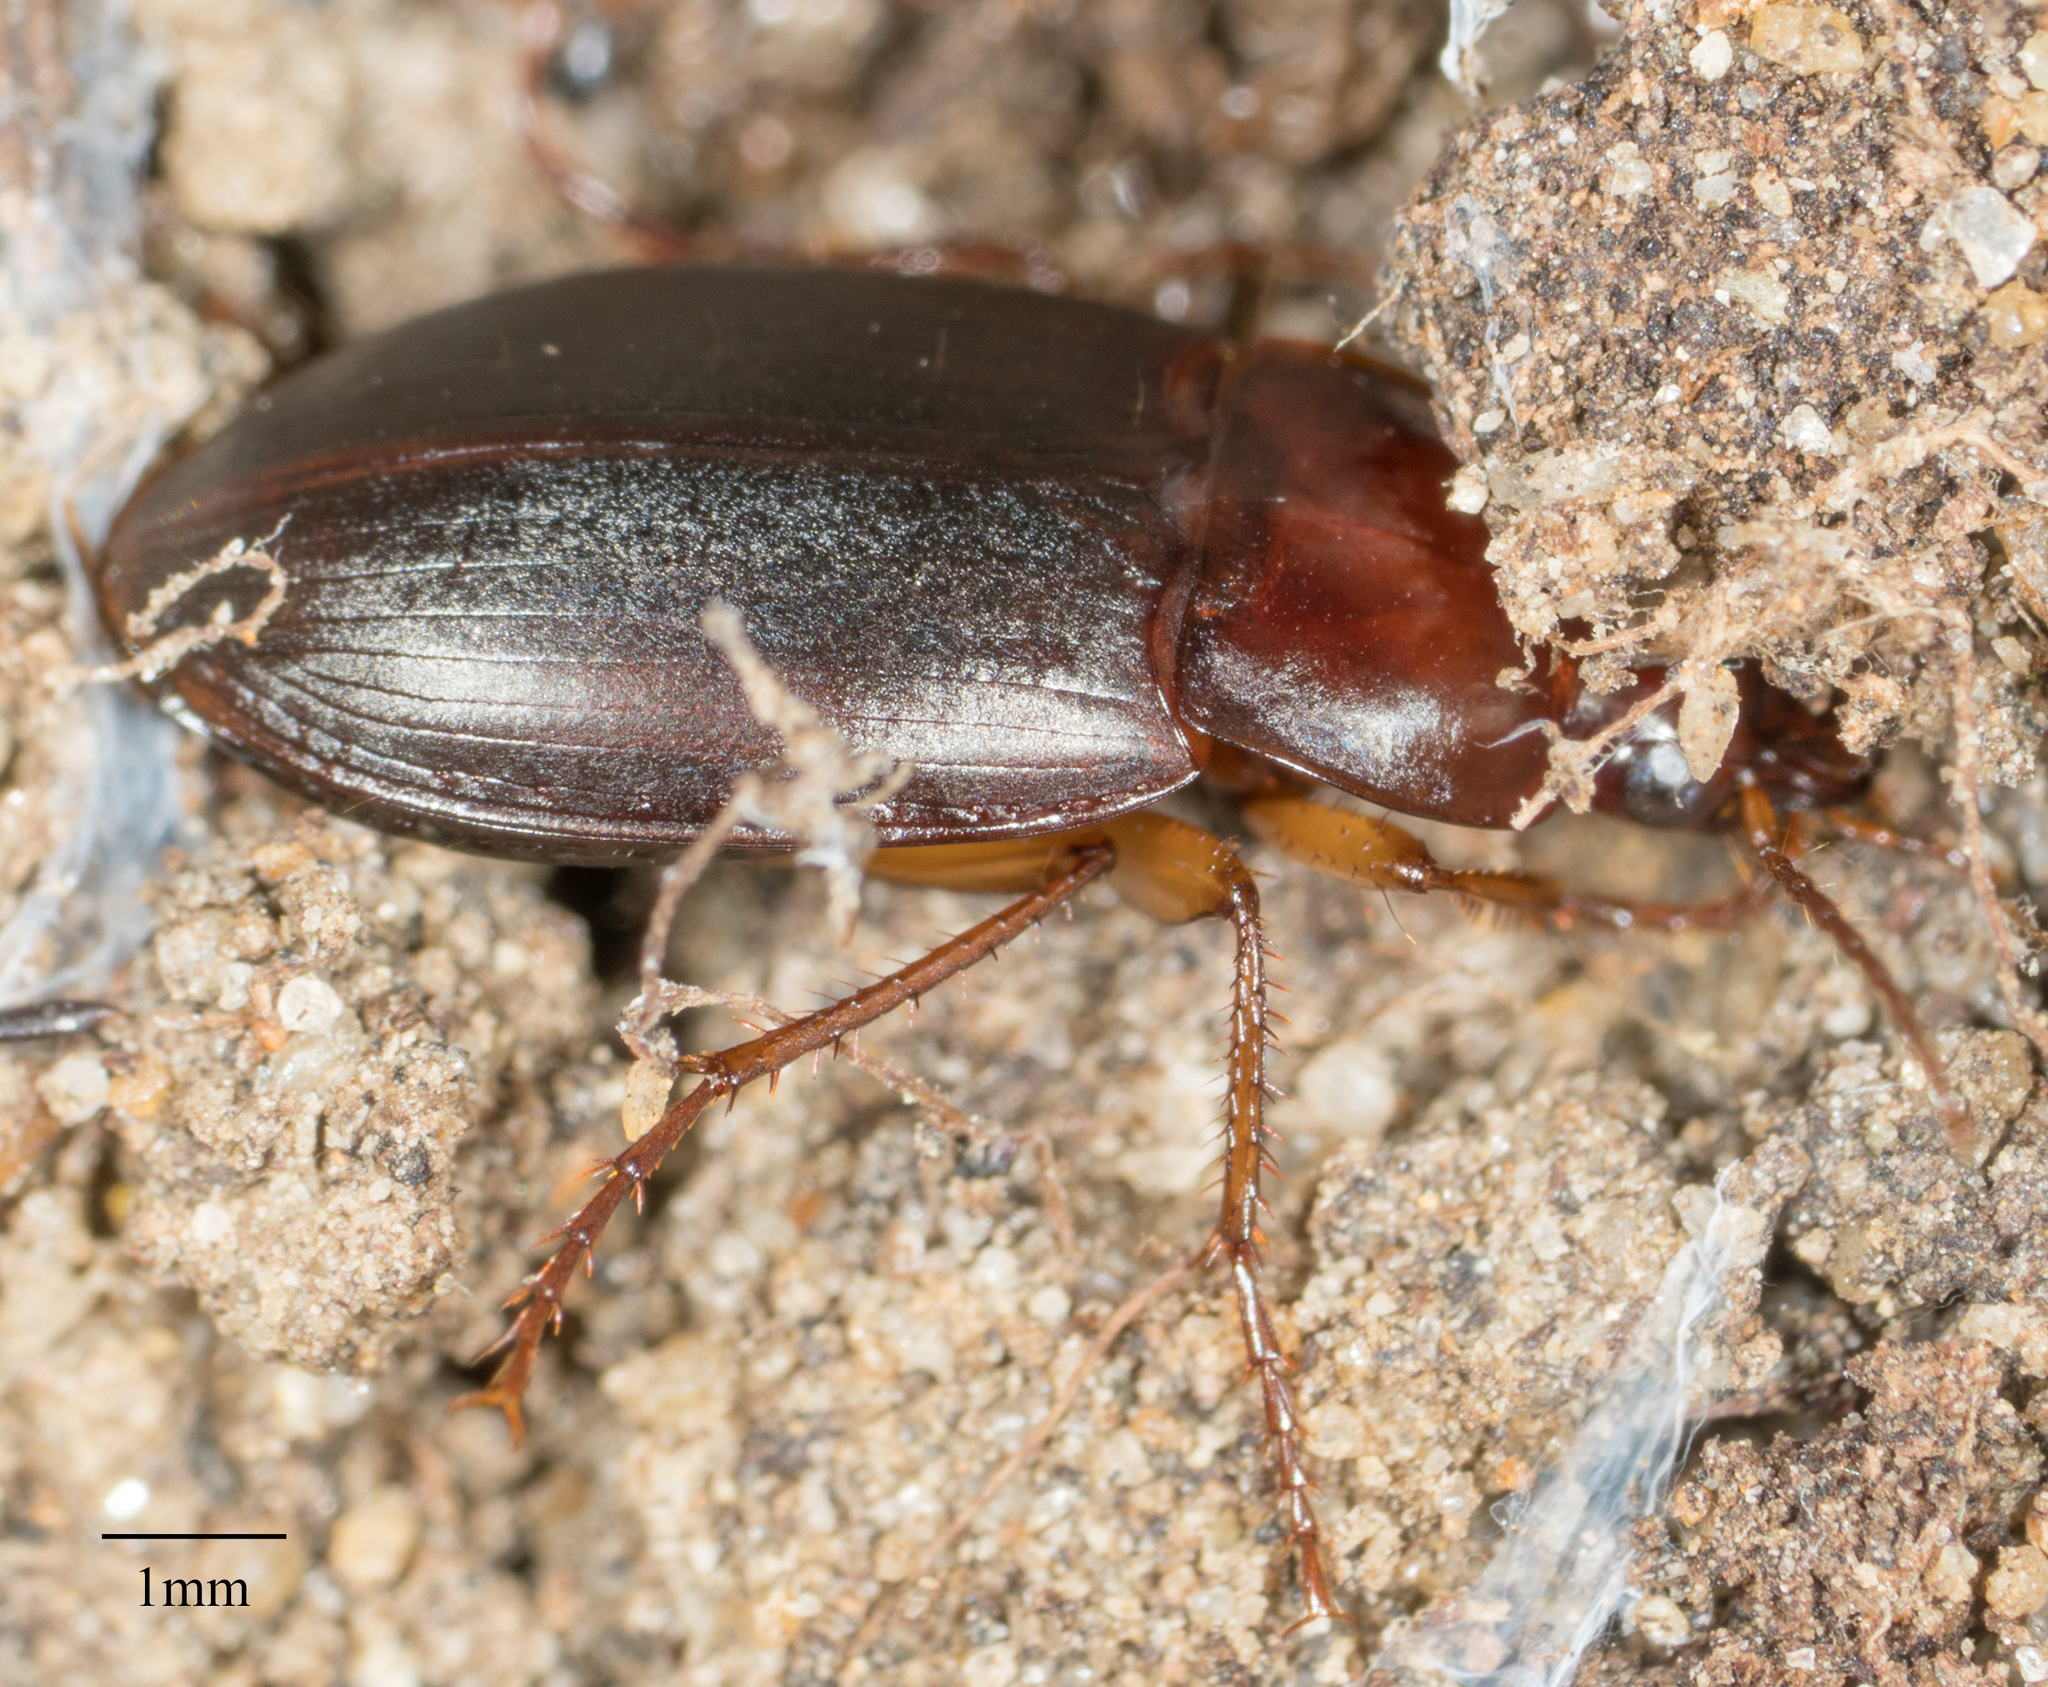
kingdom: Animalia
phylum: Arthropoda
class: Insecta
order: Coleoptera
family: Carabidae
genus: Calathus
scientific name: Calathus ruficollis
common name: Red-collared harp ground beetle
